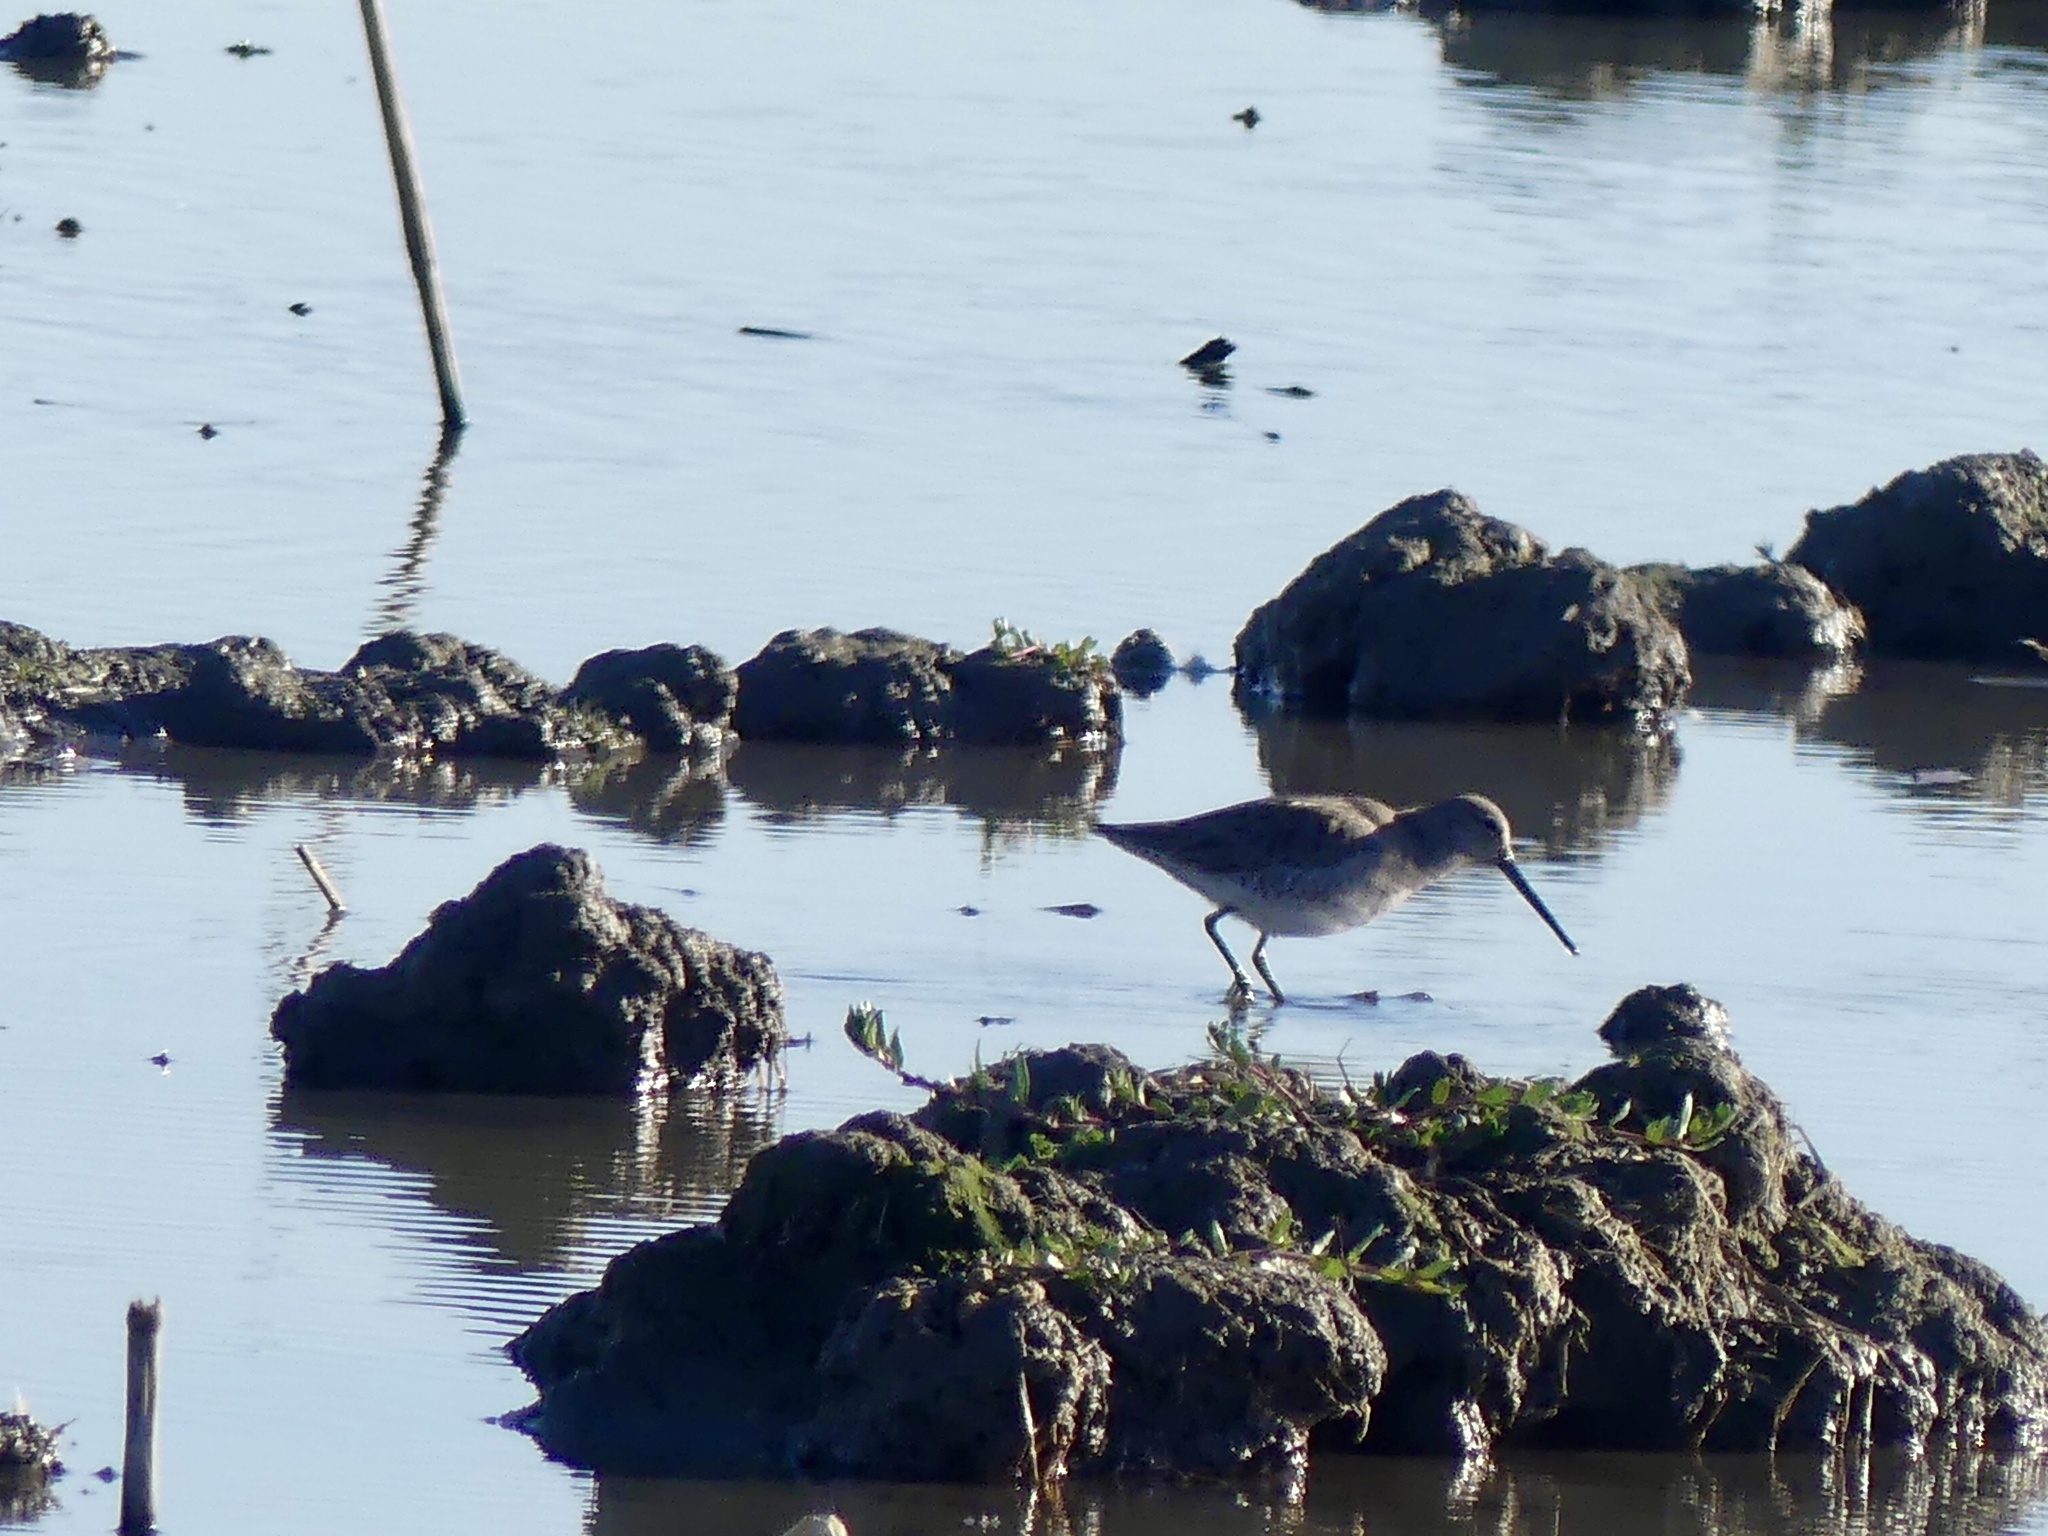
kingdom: Animalia
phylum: Chordata
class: Aves
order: Charadriiformes
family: Scolopacidae
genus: Limnodromus
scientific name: Limnodromus scolopaceus
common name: Long-billed dowitcher
